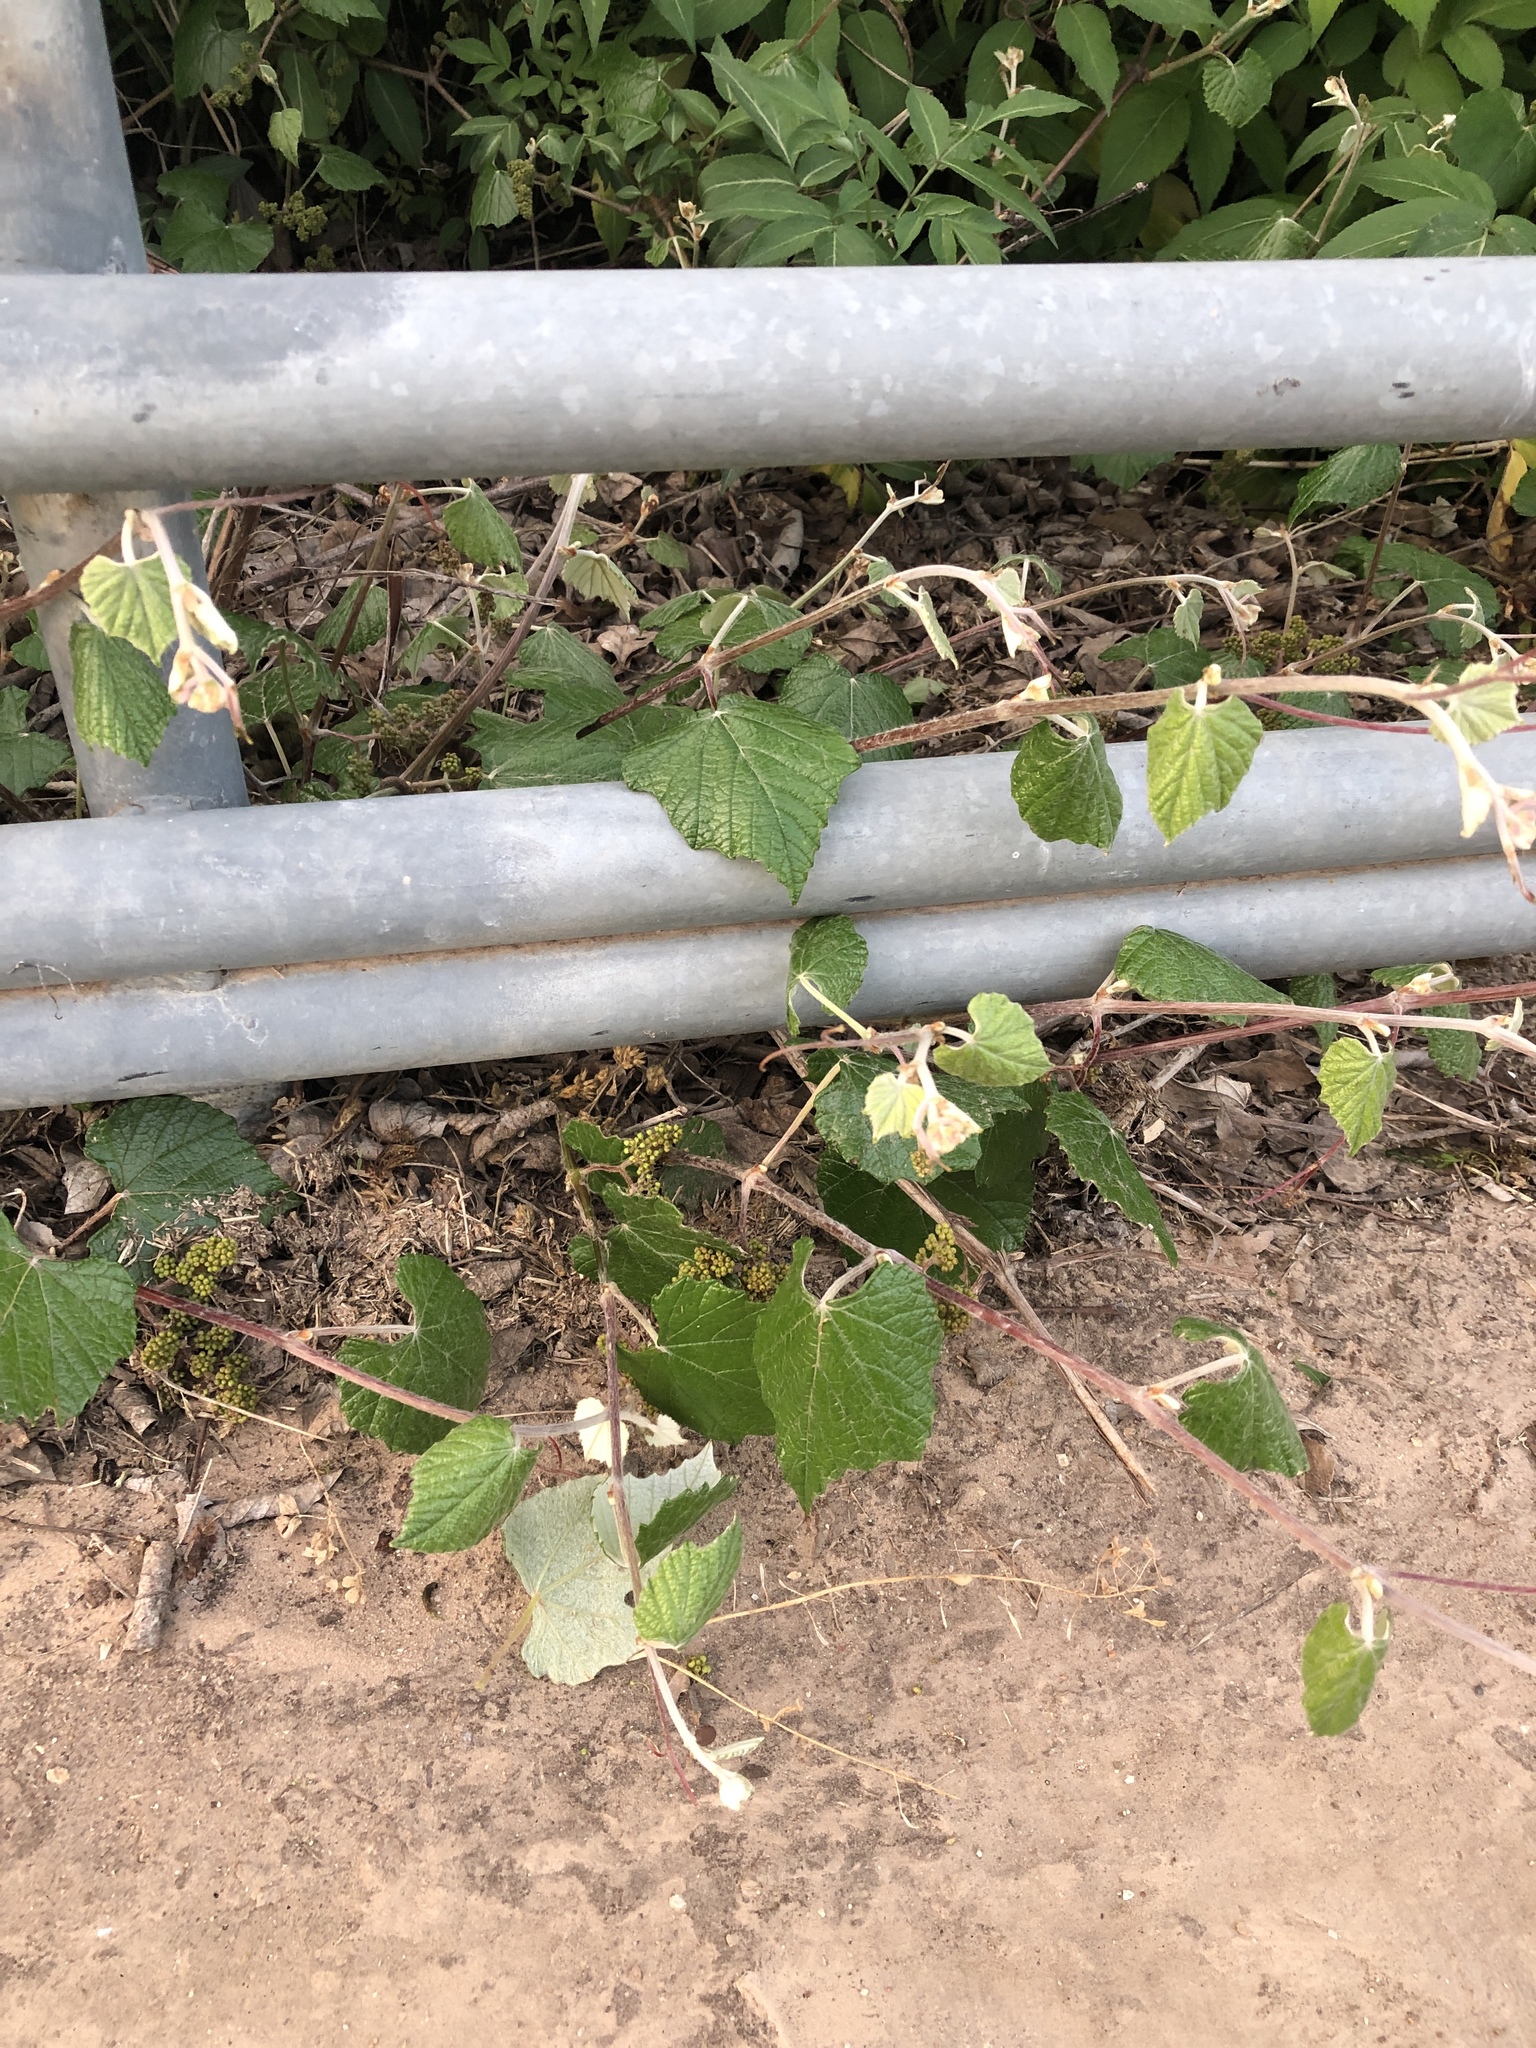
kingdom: Plantae
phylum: Tracheophyta
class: Magnoliopsida
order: Vitales
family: Vitaceae
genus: Vitis
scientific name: Vitis mustangensis
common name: Mustang grape
